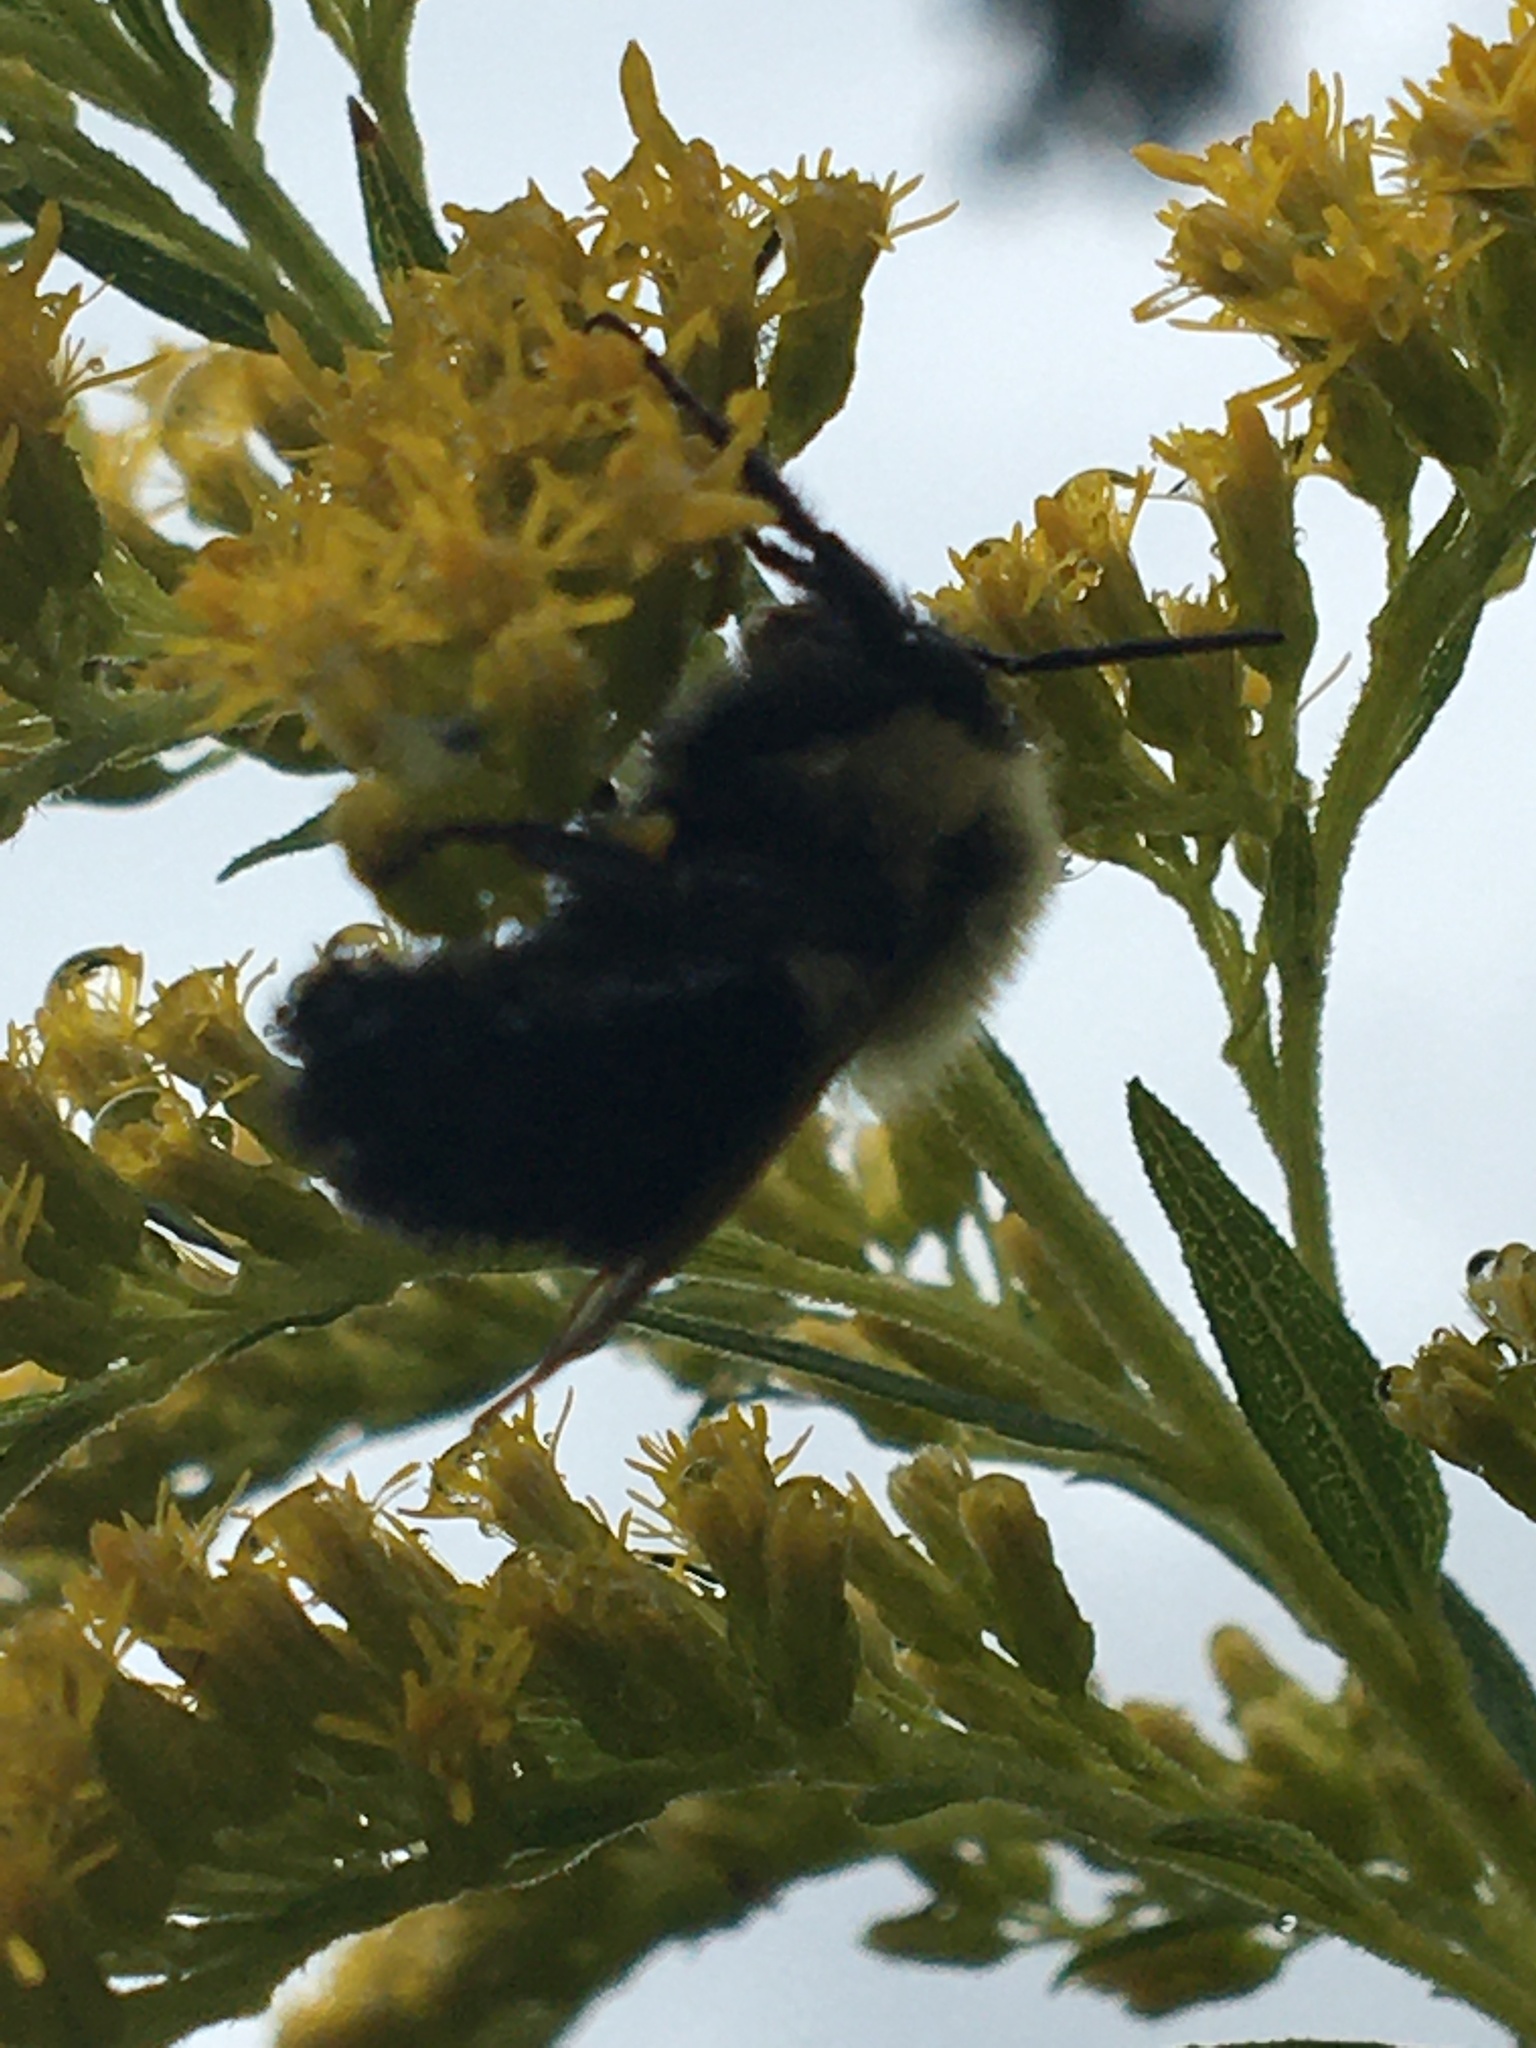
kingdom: Animalia
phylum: Arthropoda
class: Insecta
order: Hymenoptera
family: Apidae
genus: Bombus
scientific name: Bombus impatiens
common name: Common eastern bumble bee
